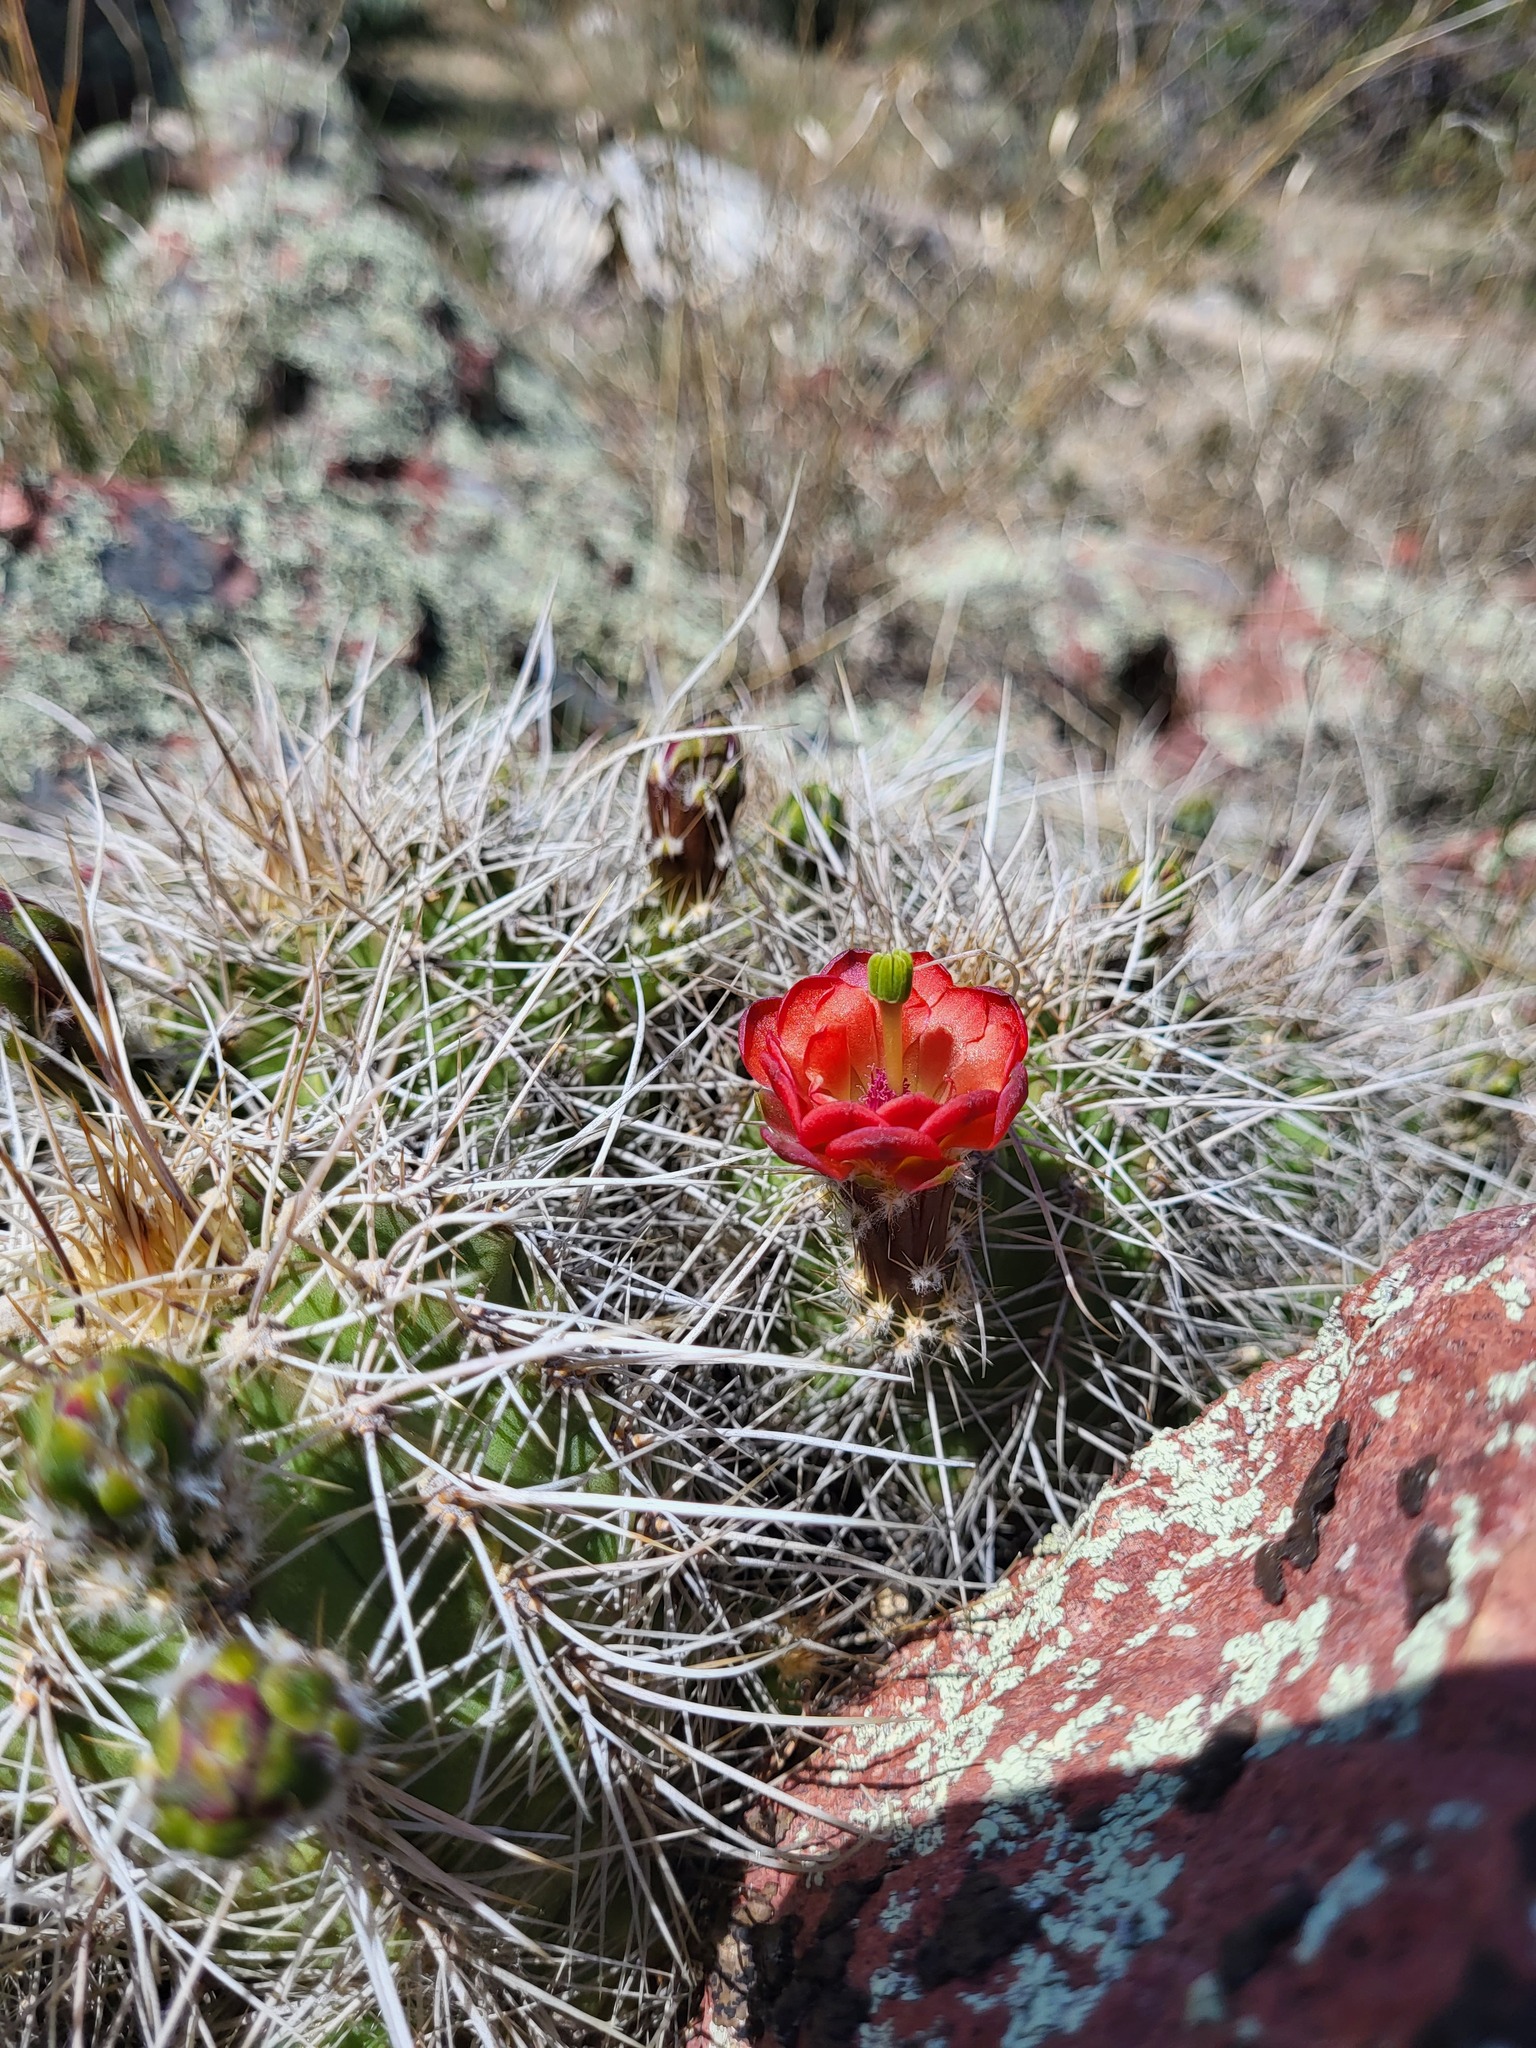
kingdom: Plantae
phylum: Tracheophyta
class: Magnoliopsida
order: Caryophyllales
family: Cactaceae
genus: Echinocereus
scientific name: Echinocereus yavapaiensis
